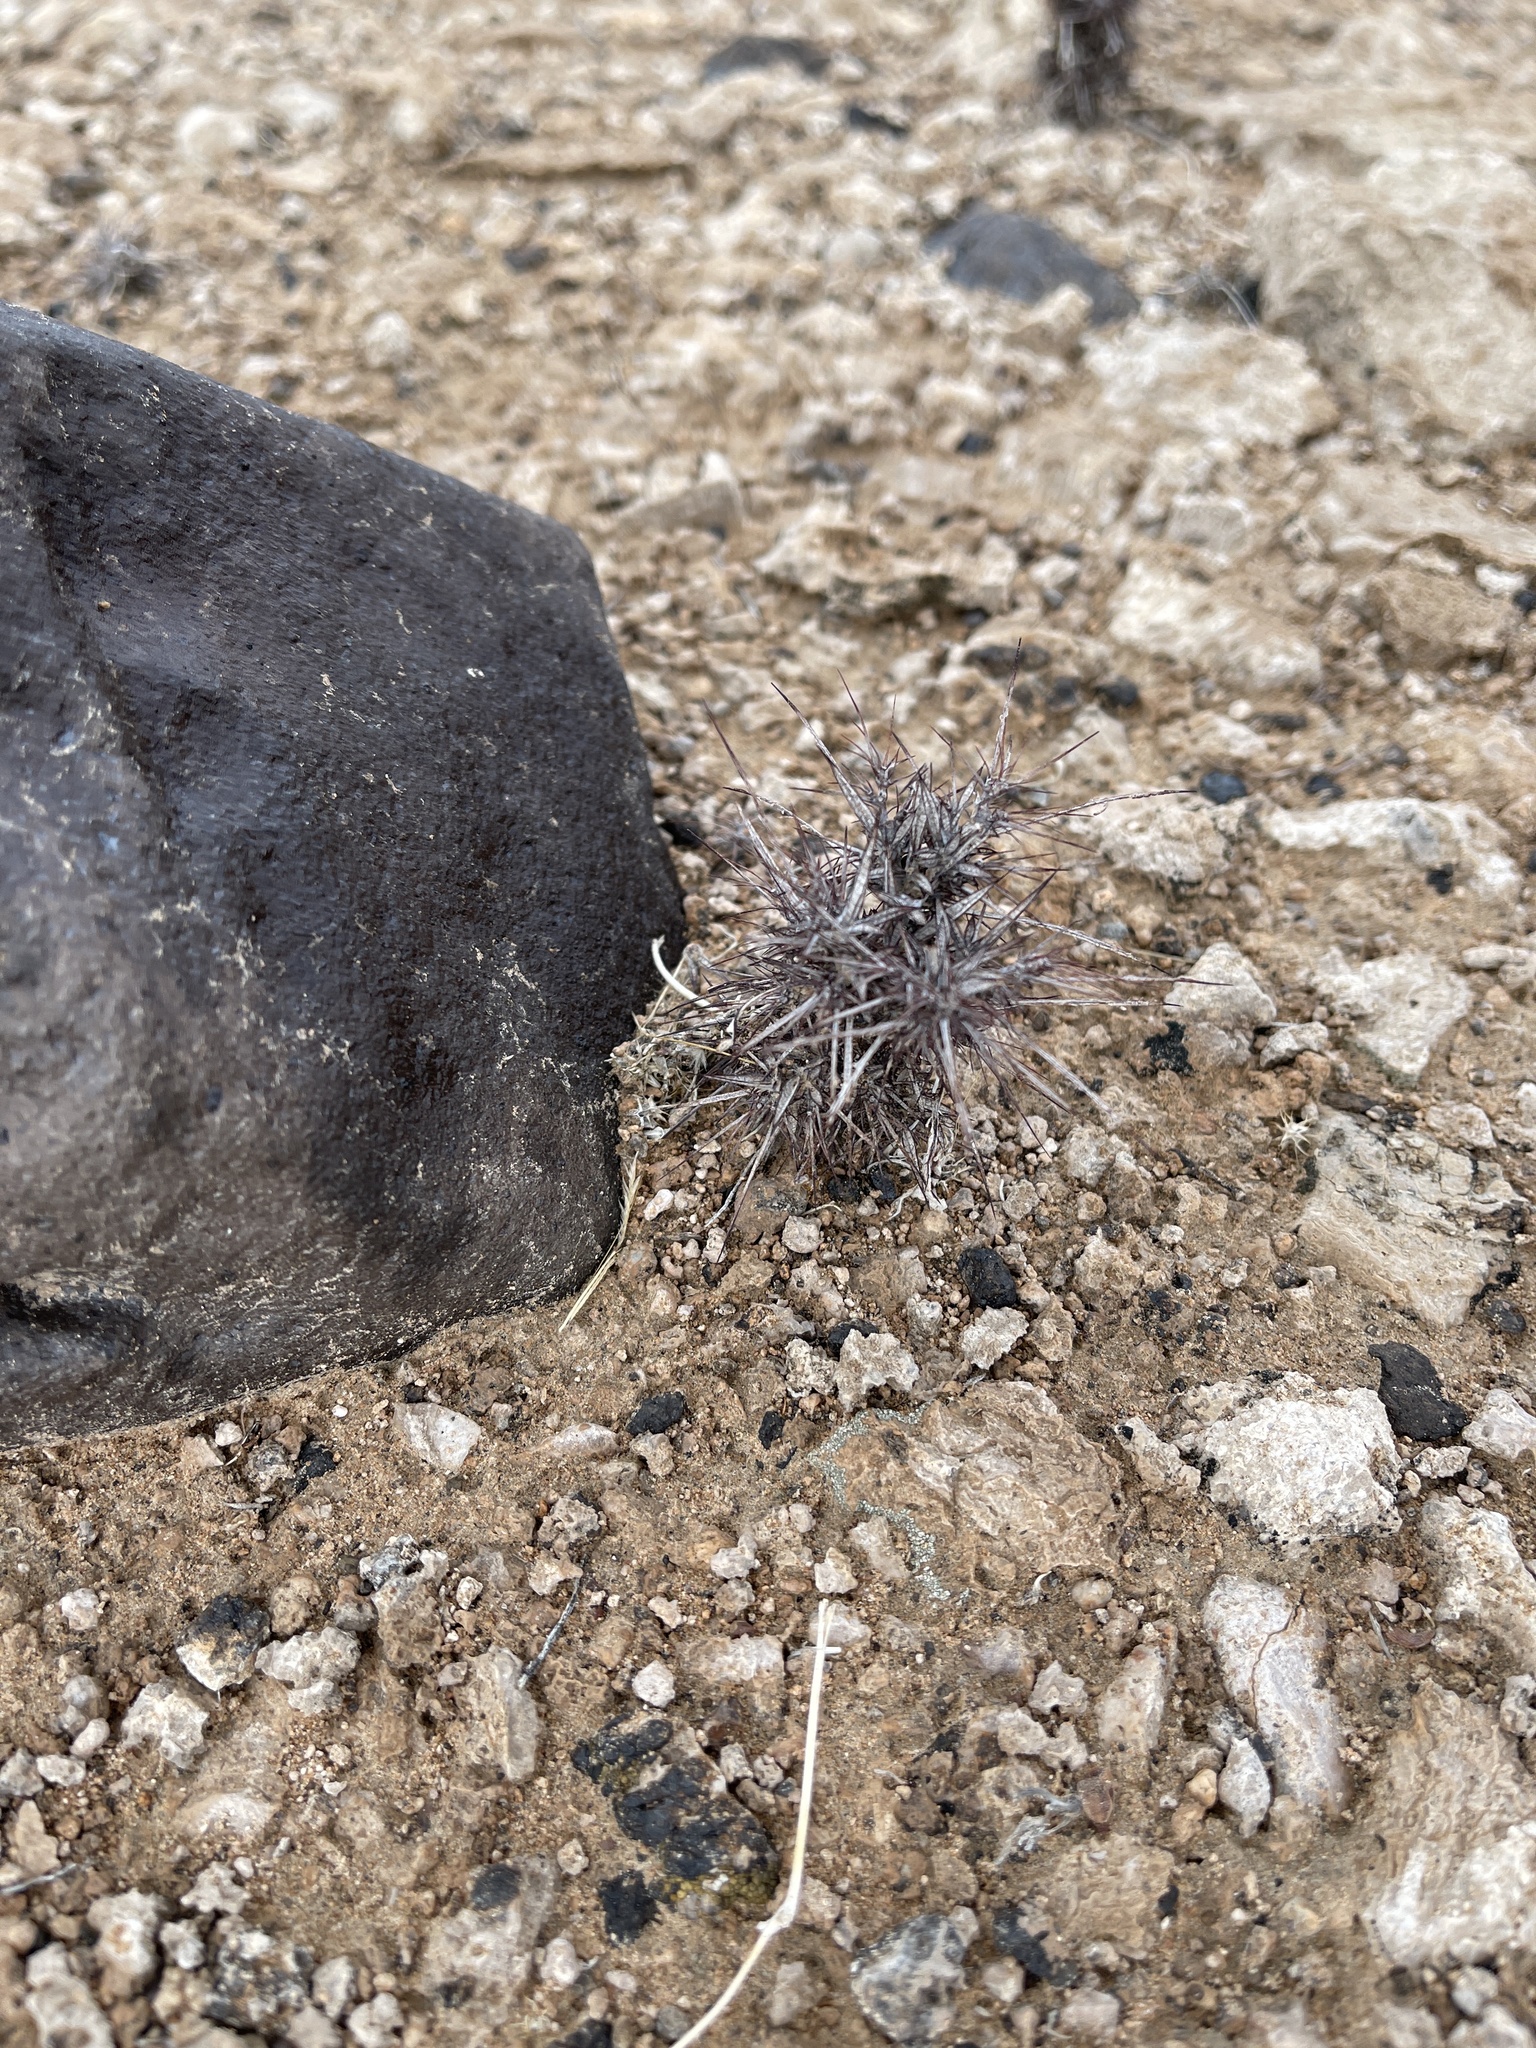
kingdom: Plantae
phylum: Tracheophyta
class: Magnoliopsida
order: Caryophyllales
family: Polygonaceae
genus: Chorizanthe
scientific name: Chorizanthe rigida
